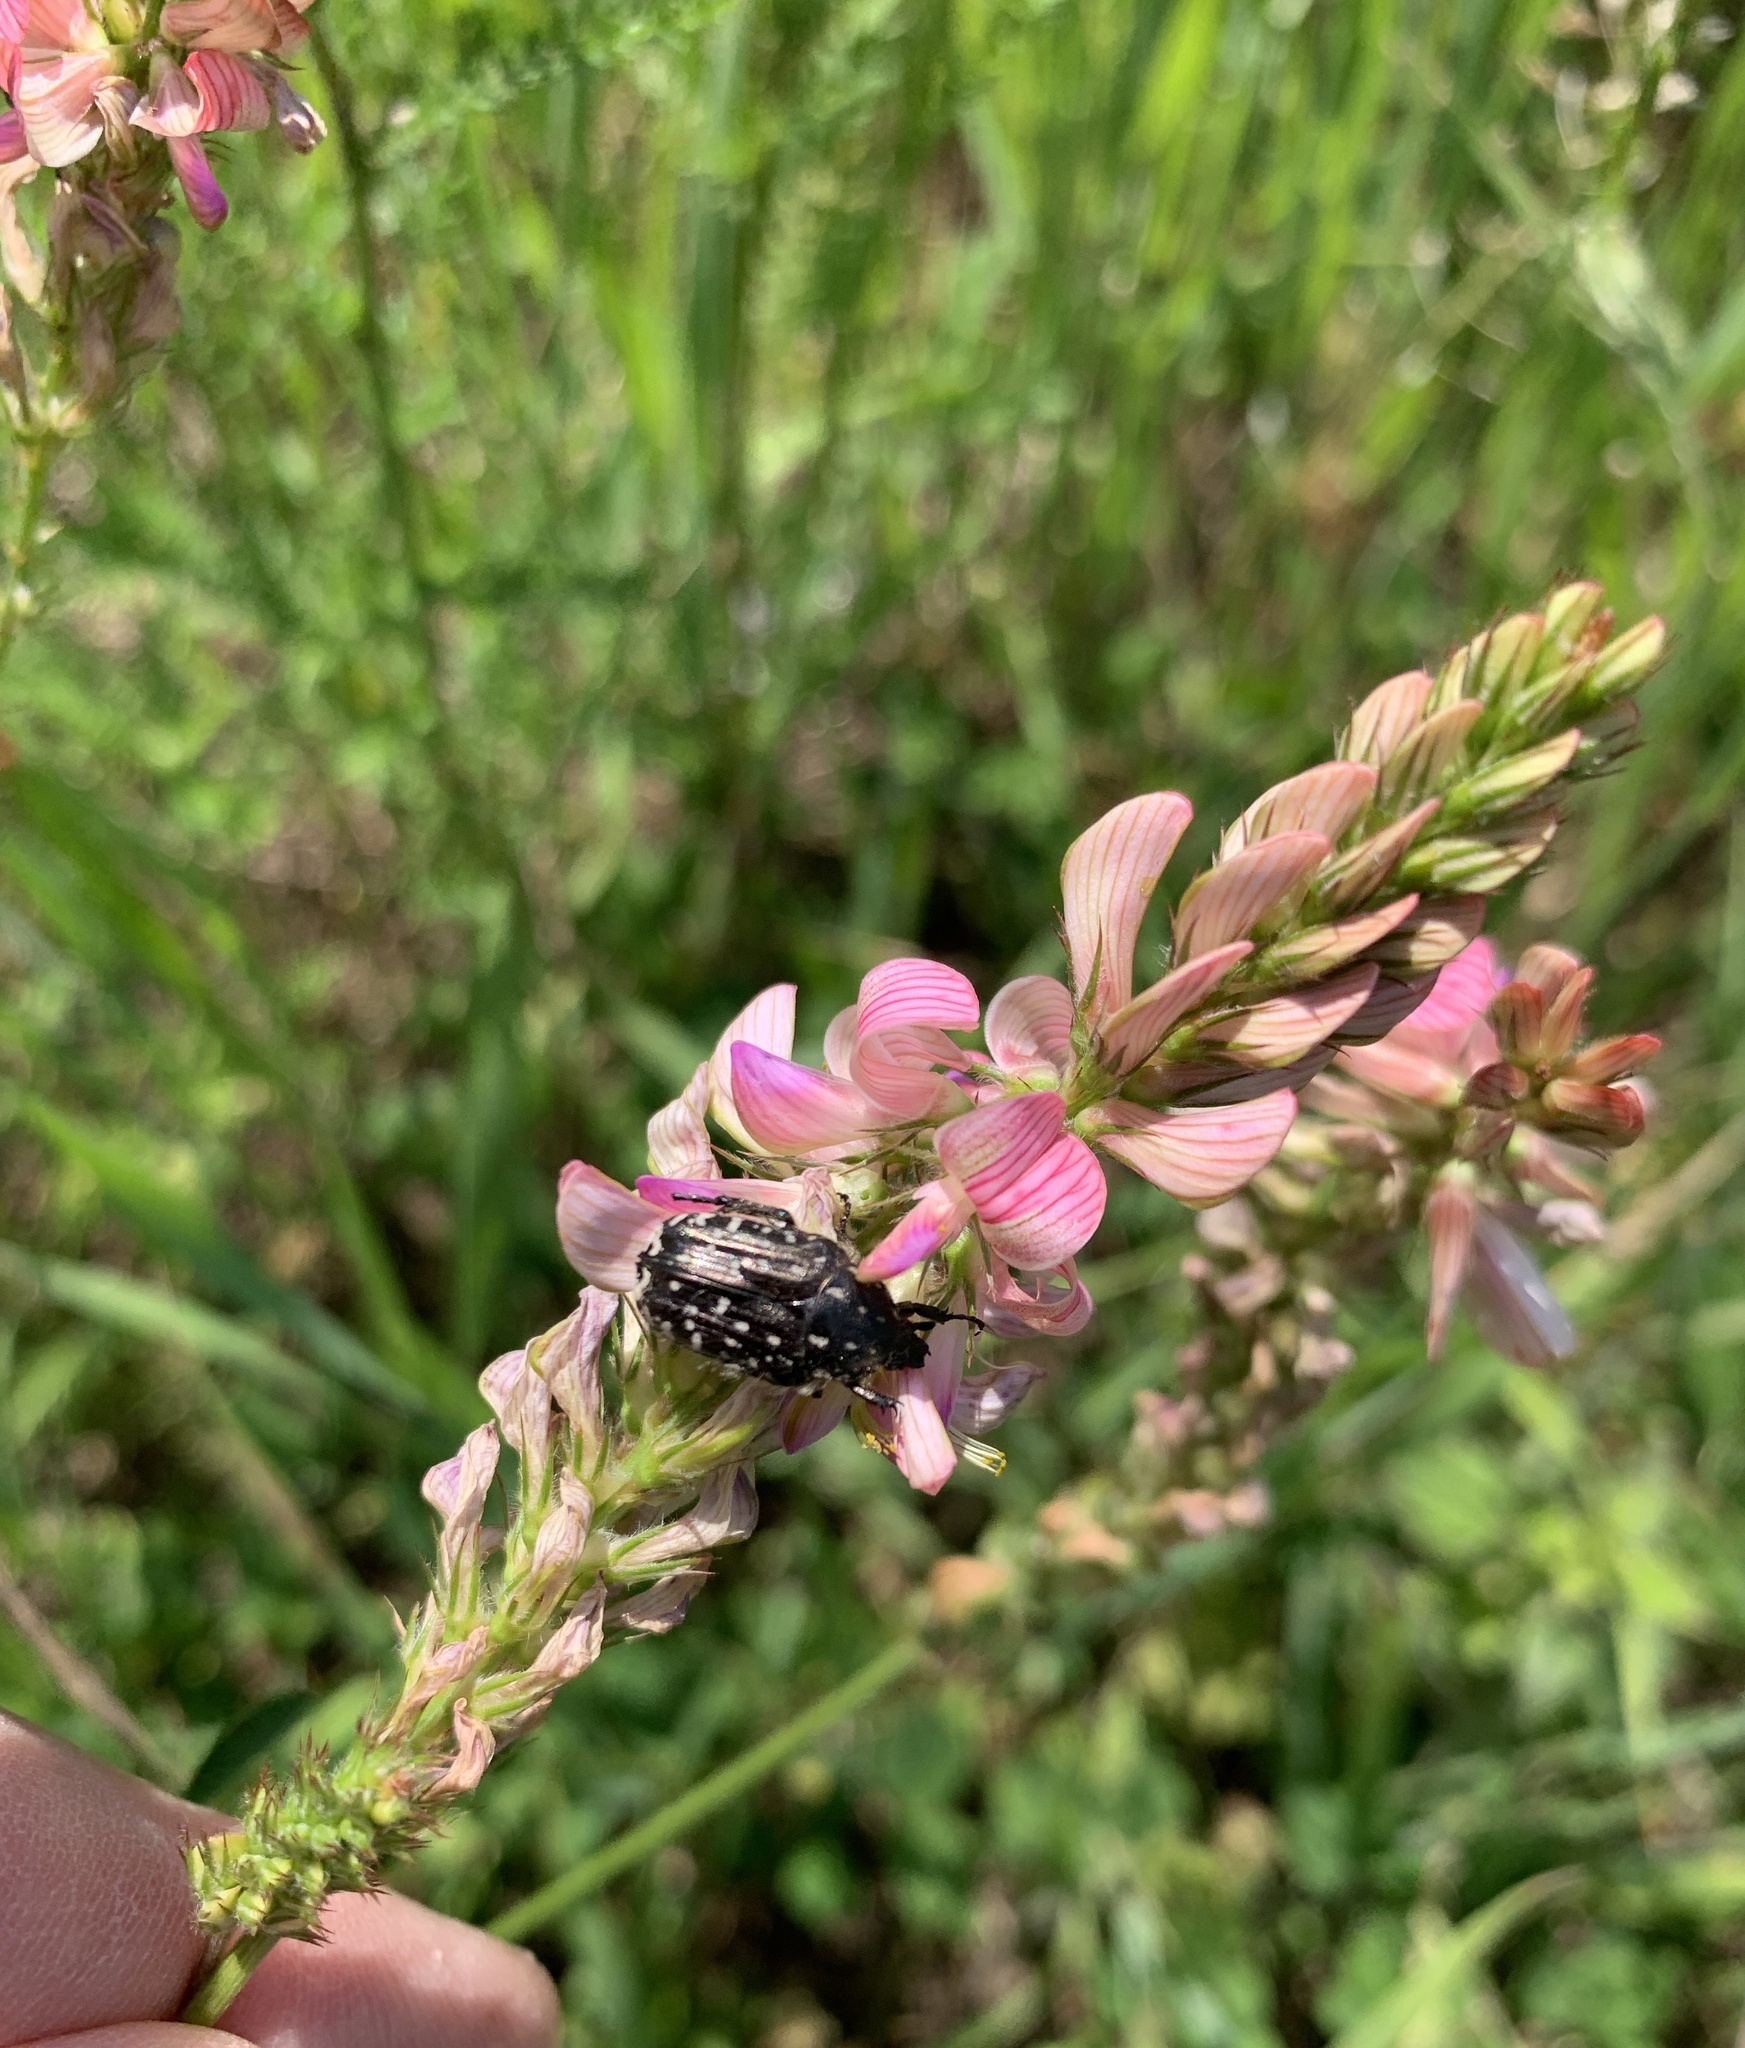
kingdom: Animalia
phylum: Arthropoda
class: Insecta
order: Coleoptera
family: Scarabaeidae
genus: Oxythyrea
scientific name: Oxythyrea funesta
